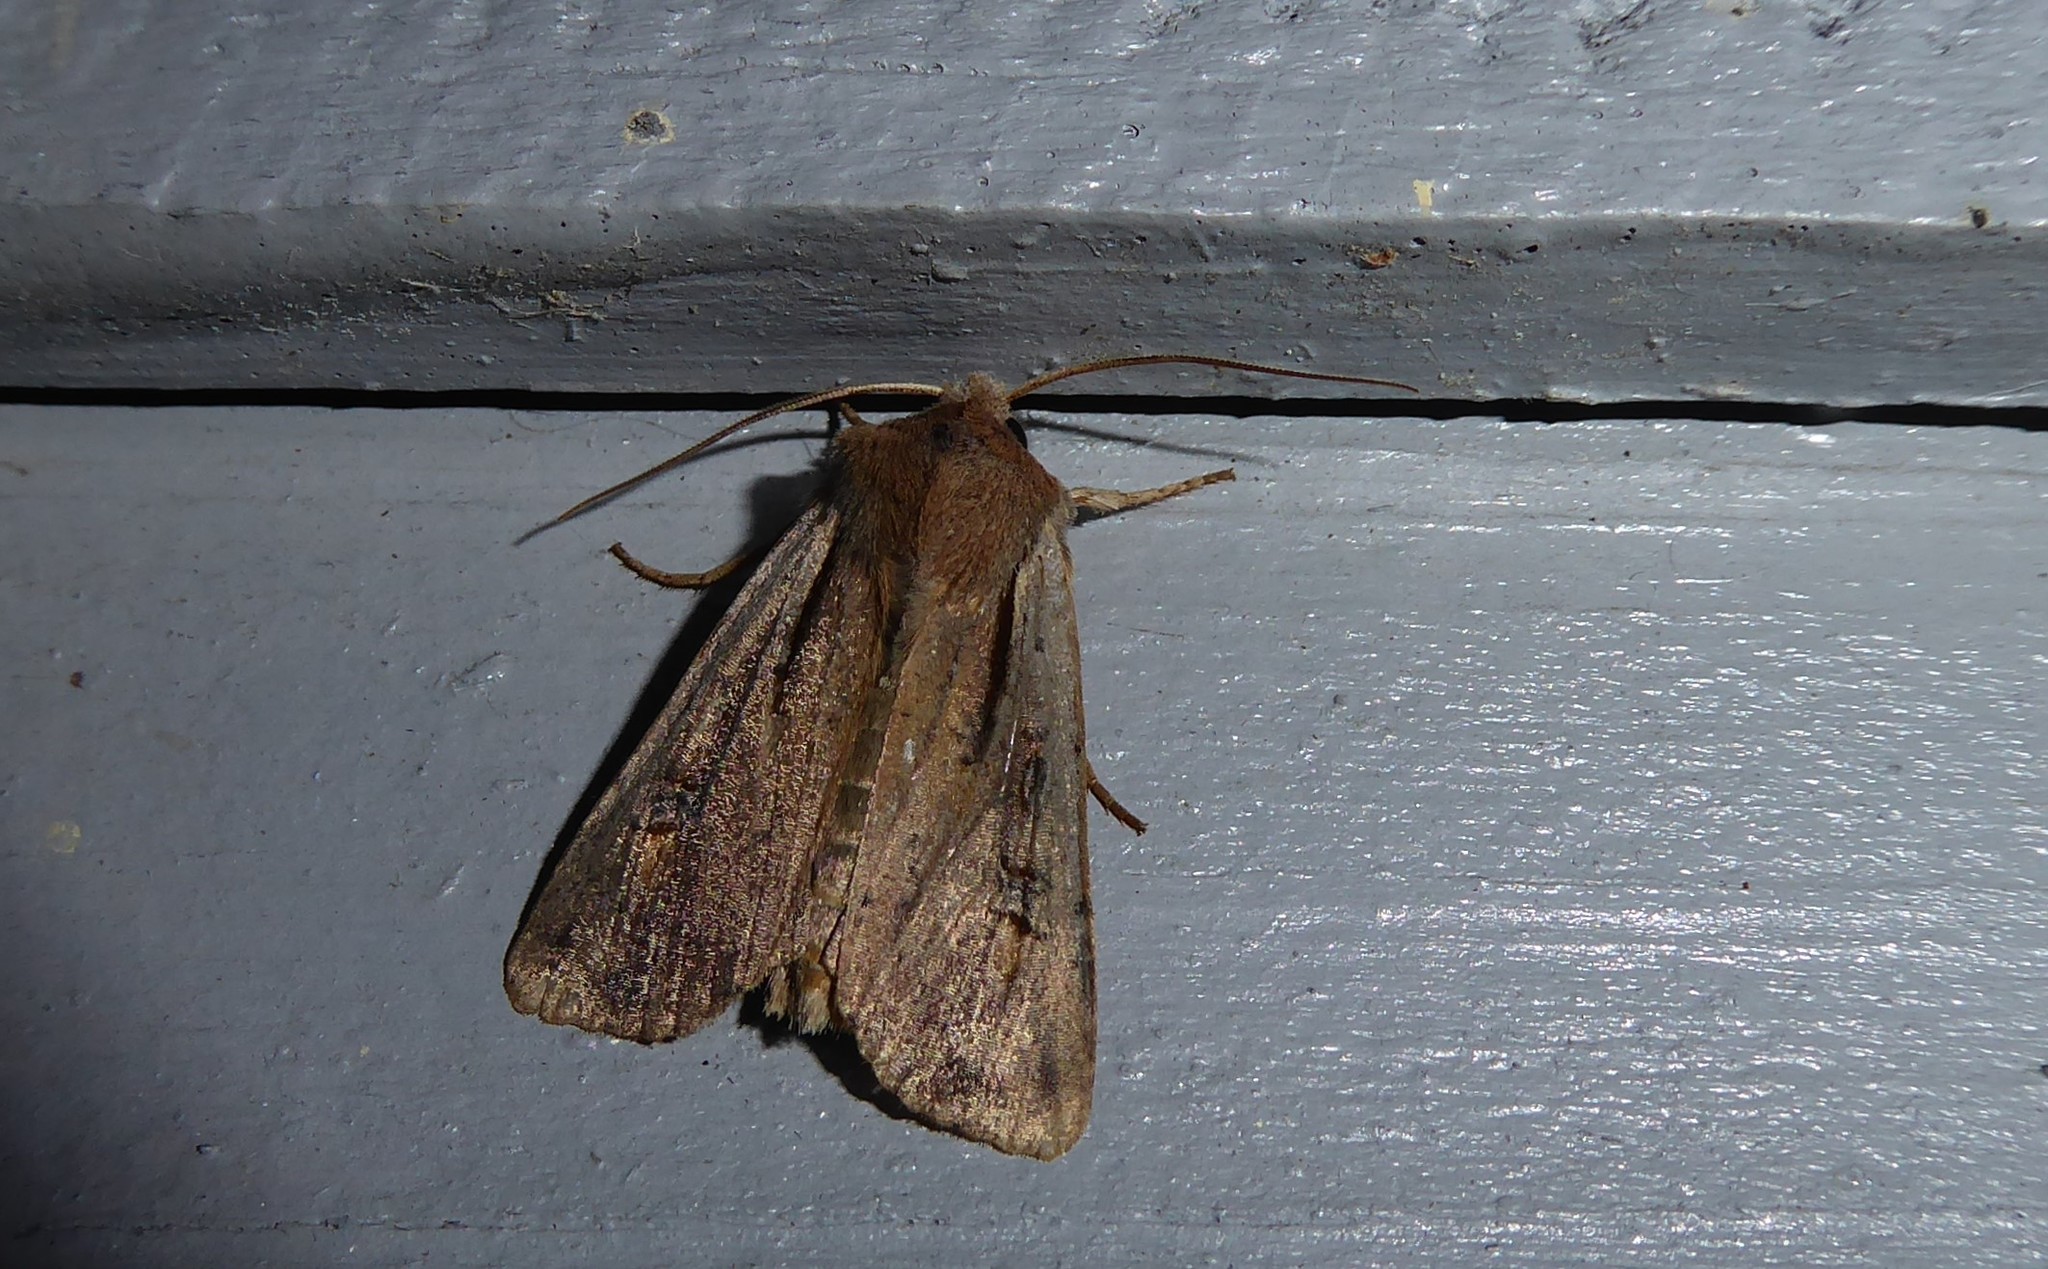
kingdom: Animalia
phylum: Arthropoda
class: Insecta
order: Lepidoptera
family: Noctuidae
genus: Ichneutica
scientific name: Ichneutica atristriga
